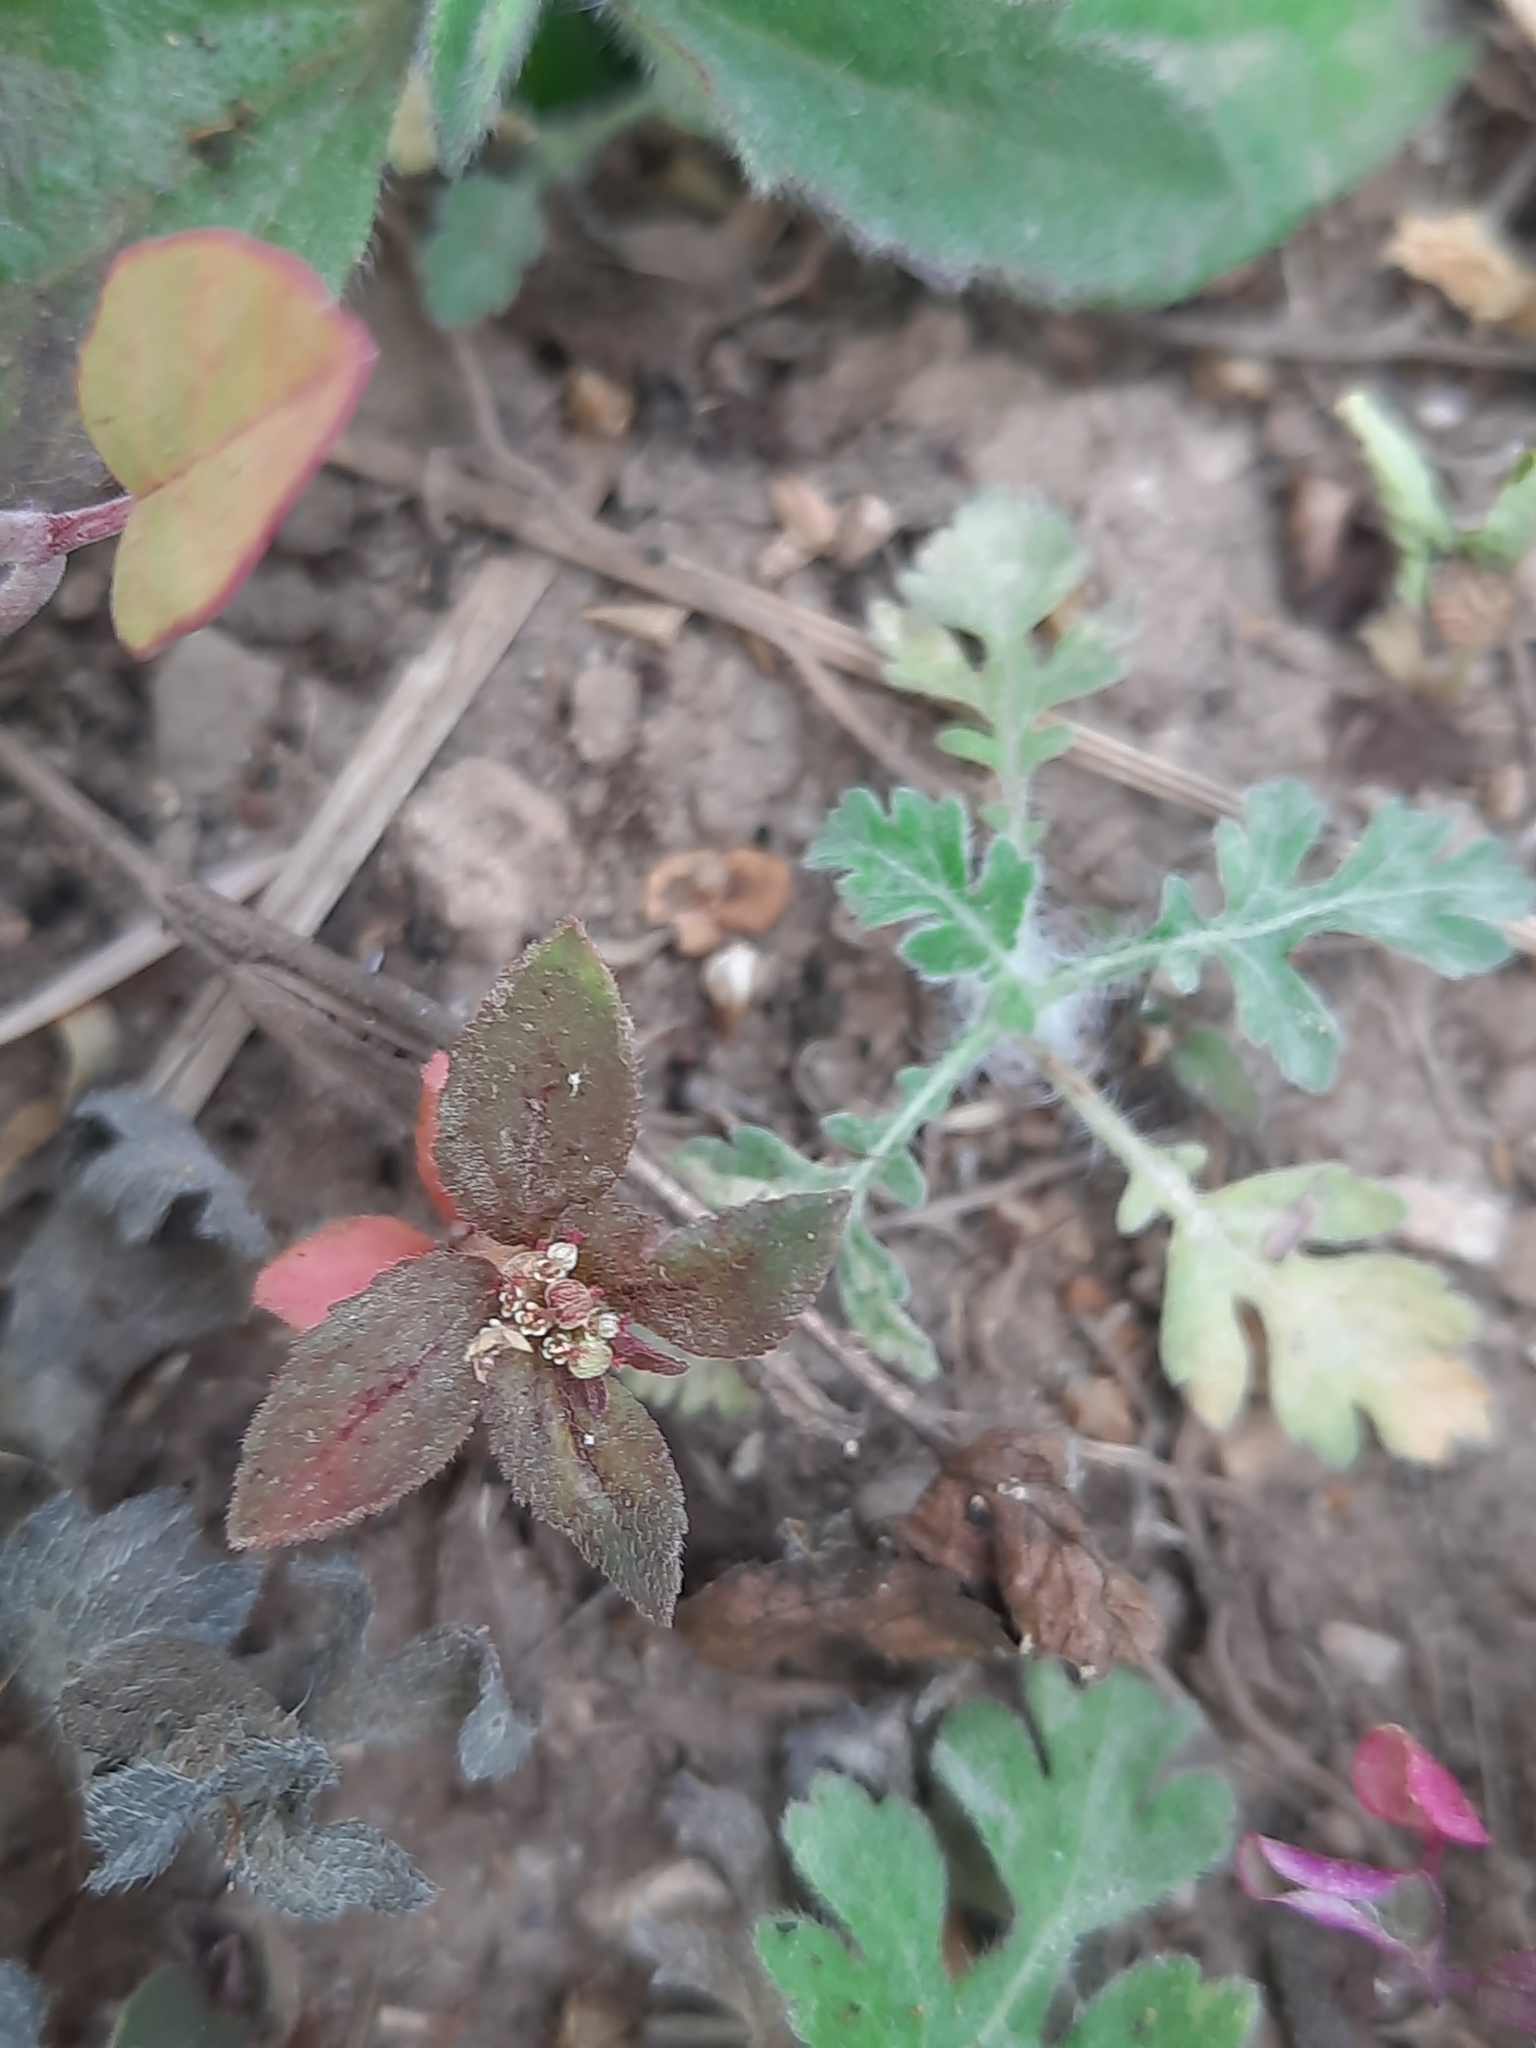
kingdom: Plantae
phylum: Tracheophyta
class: Magnoliopsida
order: Malpighiales
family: Euphorbiaceae
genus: Euphorbia
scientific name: Euphorbia hirta
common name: Pillpod sandmat
